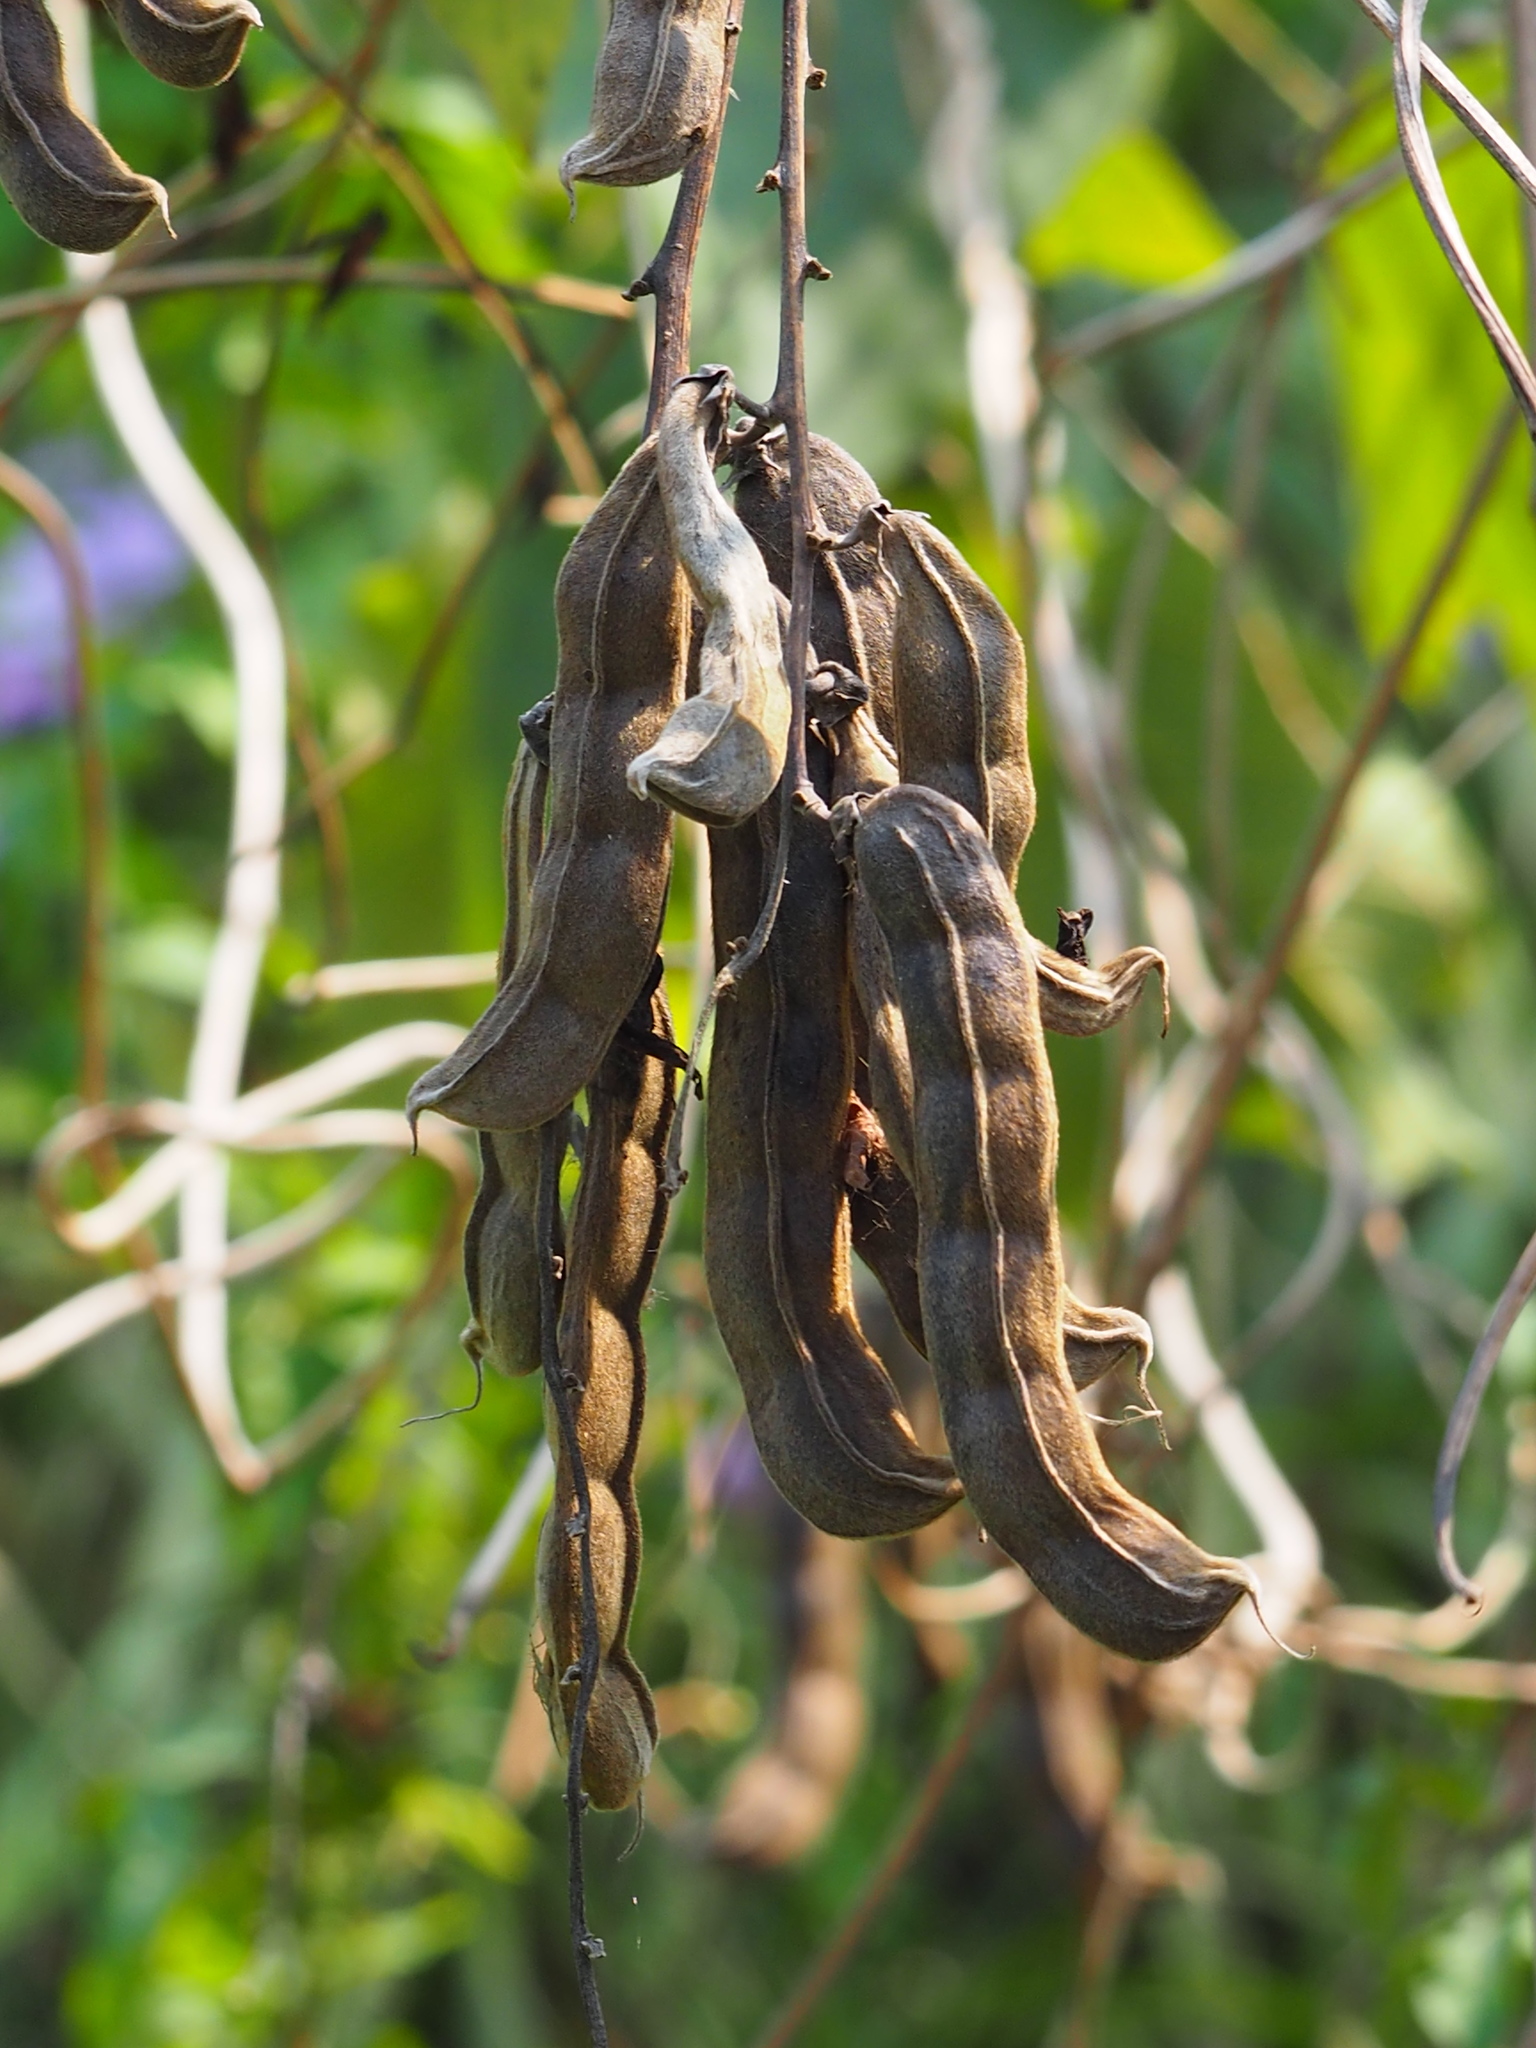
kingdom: Plantae
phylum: Tracheophyta
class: Magnoliopsida
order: Fabales
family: Fabaceae
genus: Mucuna
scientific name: Mucuna pruriens
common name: Cow-itch
